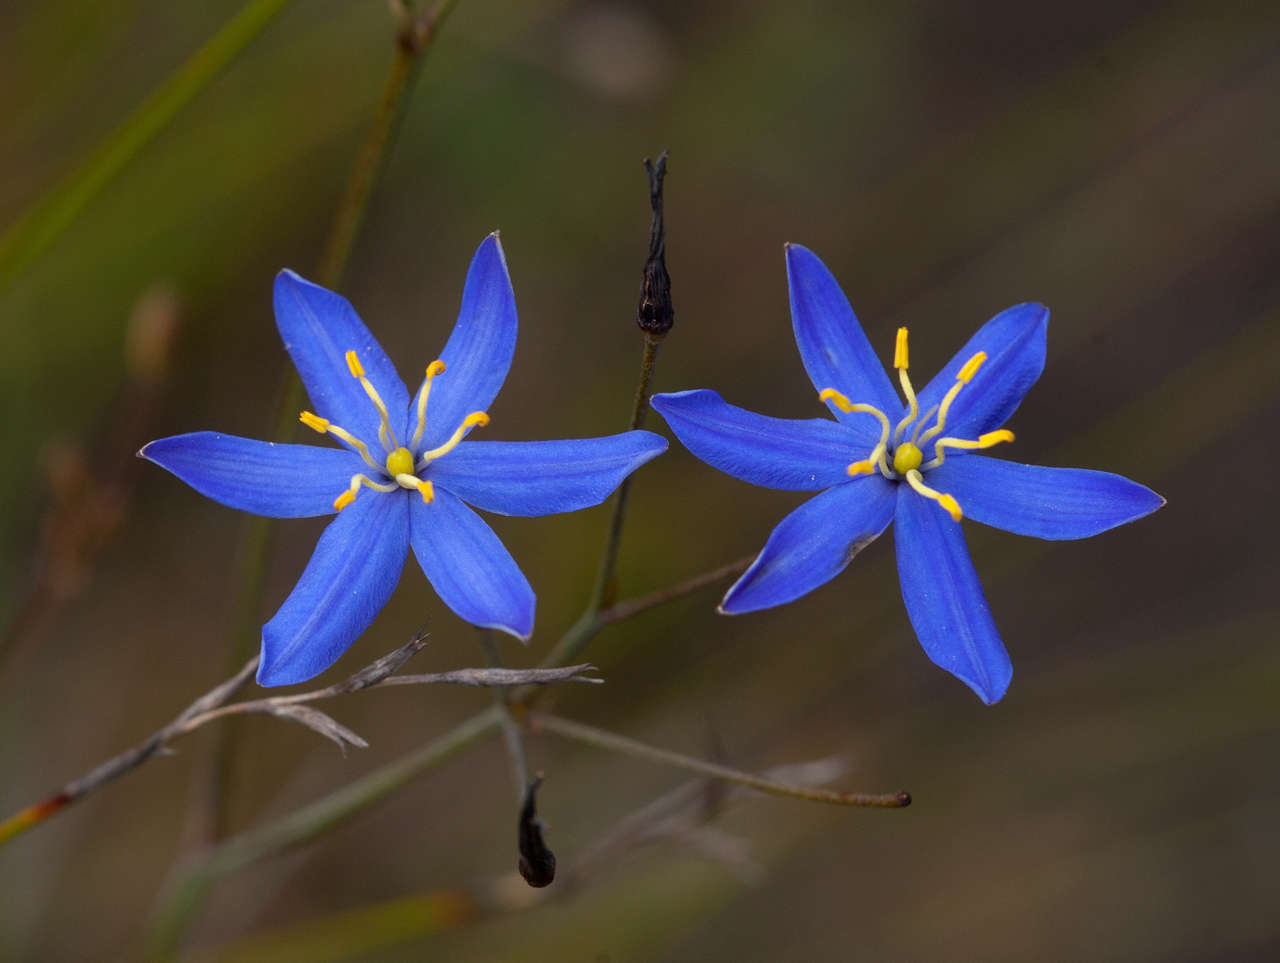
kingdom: Plantae
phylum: Tracheophyta
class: Liliopsida
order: Asparagales
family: Asphodelaceae
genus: Thelionema
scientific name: Thelionema caespitosum
